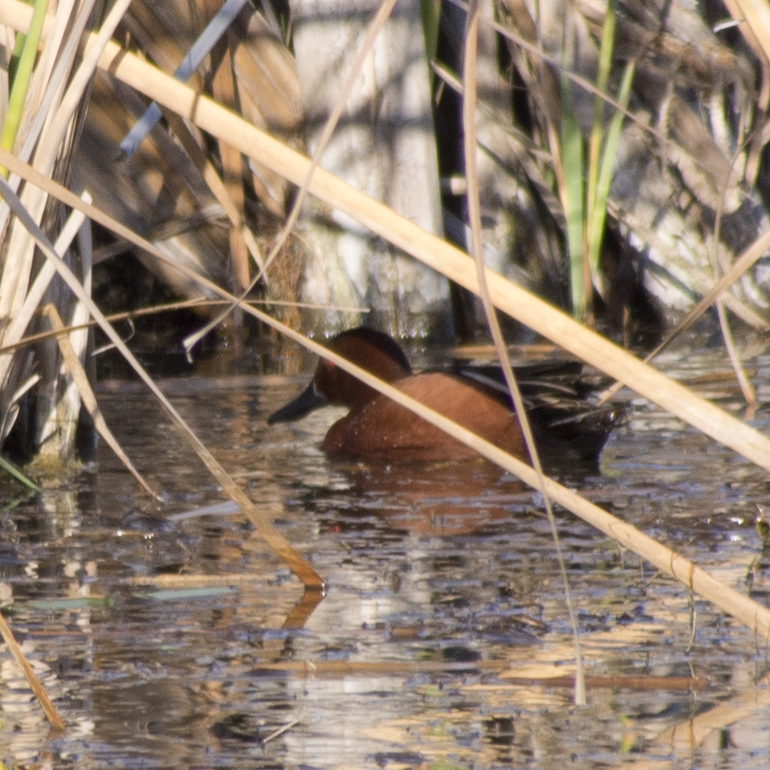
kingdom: Animalia
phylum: Chordata
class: Aves
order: Anseriformes
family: Anatidae
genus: Spatula
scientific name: Spatula cyanoptera
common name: Cinnamon teal
